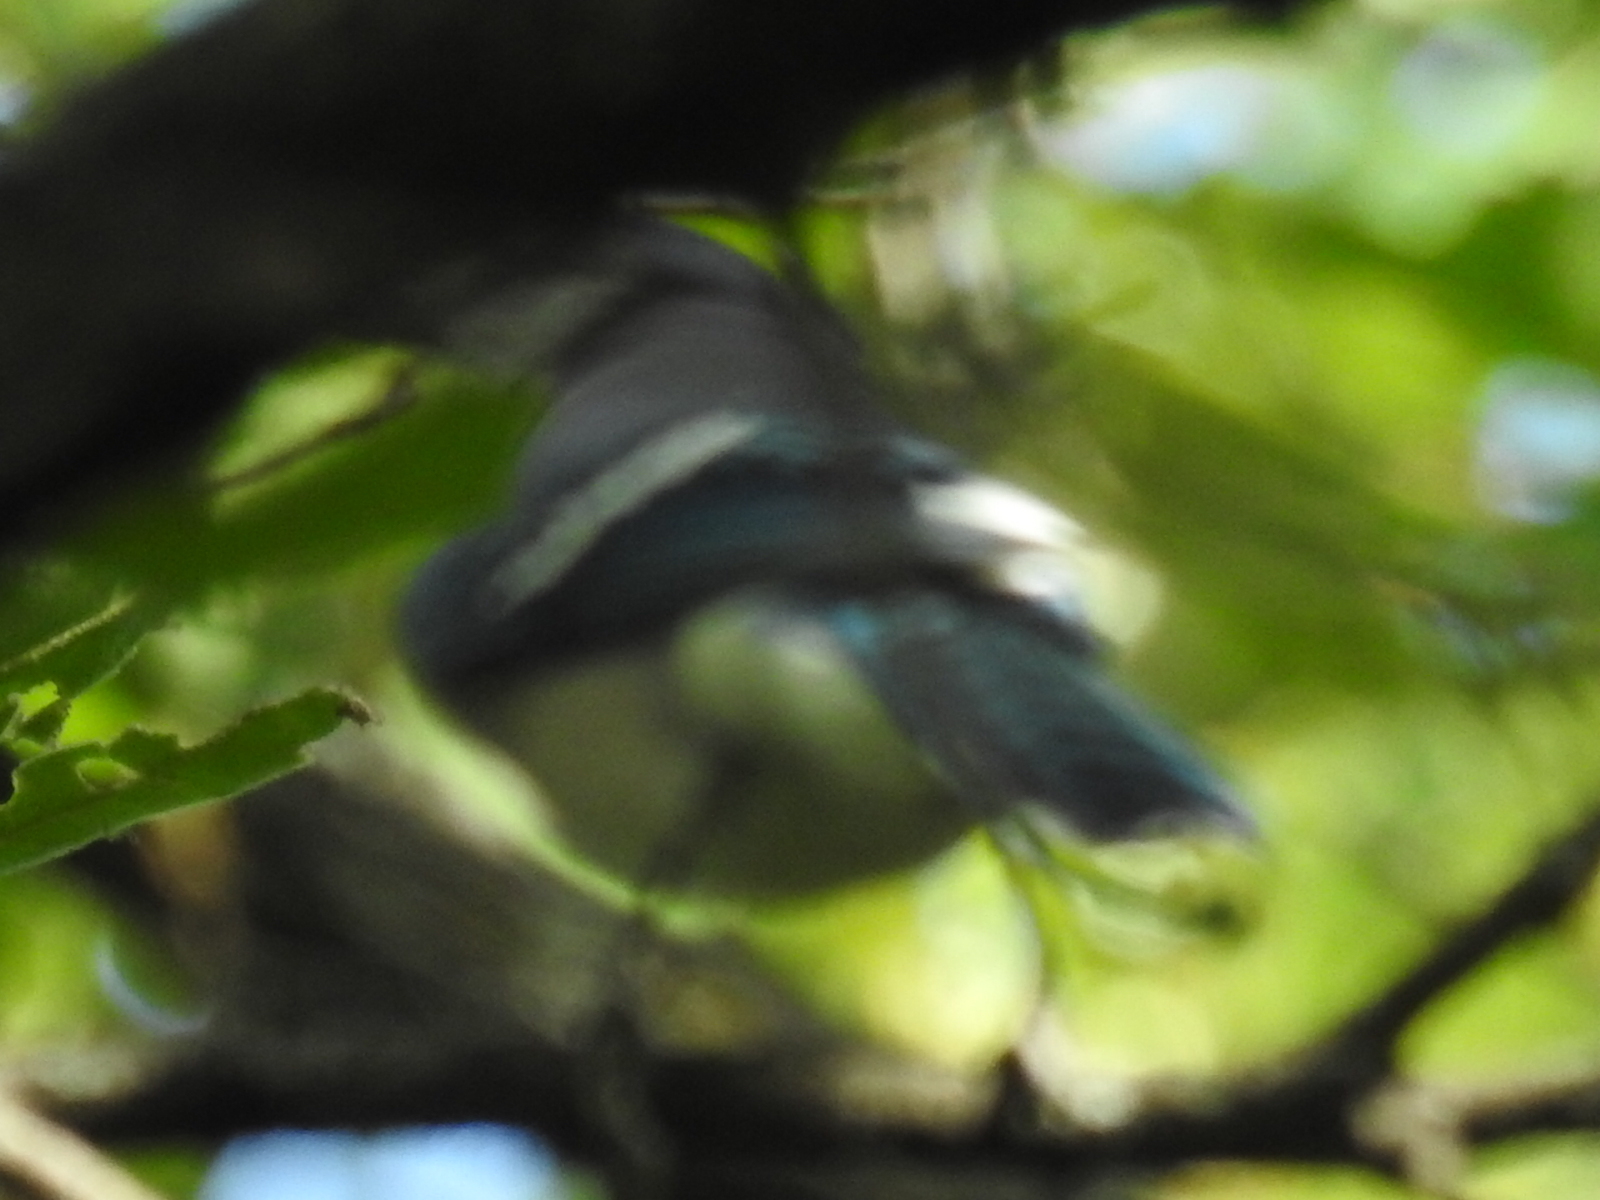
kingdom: Animalia
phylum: Chordata
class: Aves
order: Passeriformes
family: Corvidae
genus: Cyanocitta
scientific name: Cyanocitta cristata
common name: Blue jay
